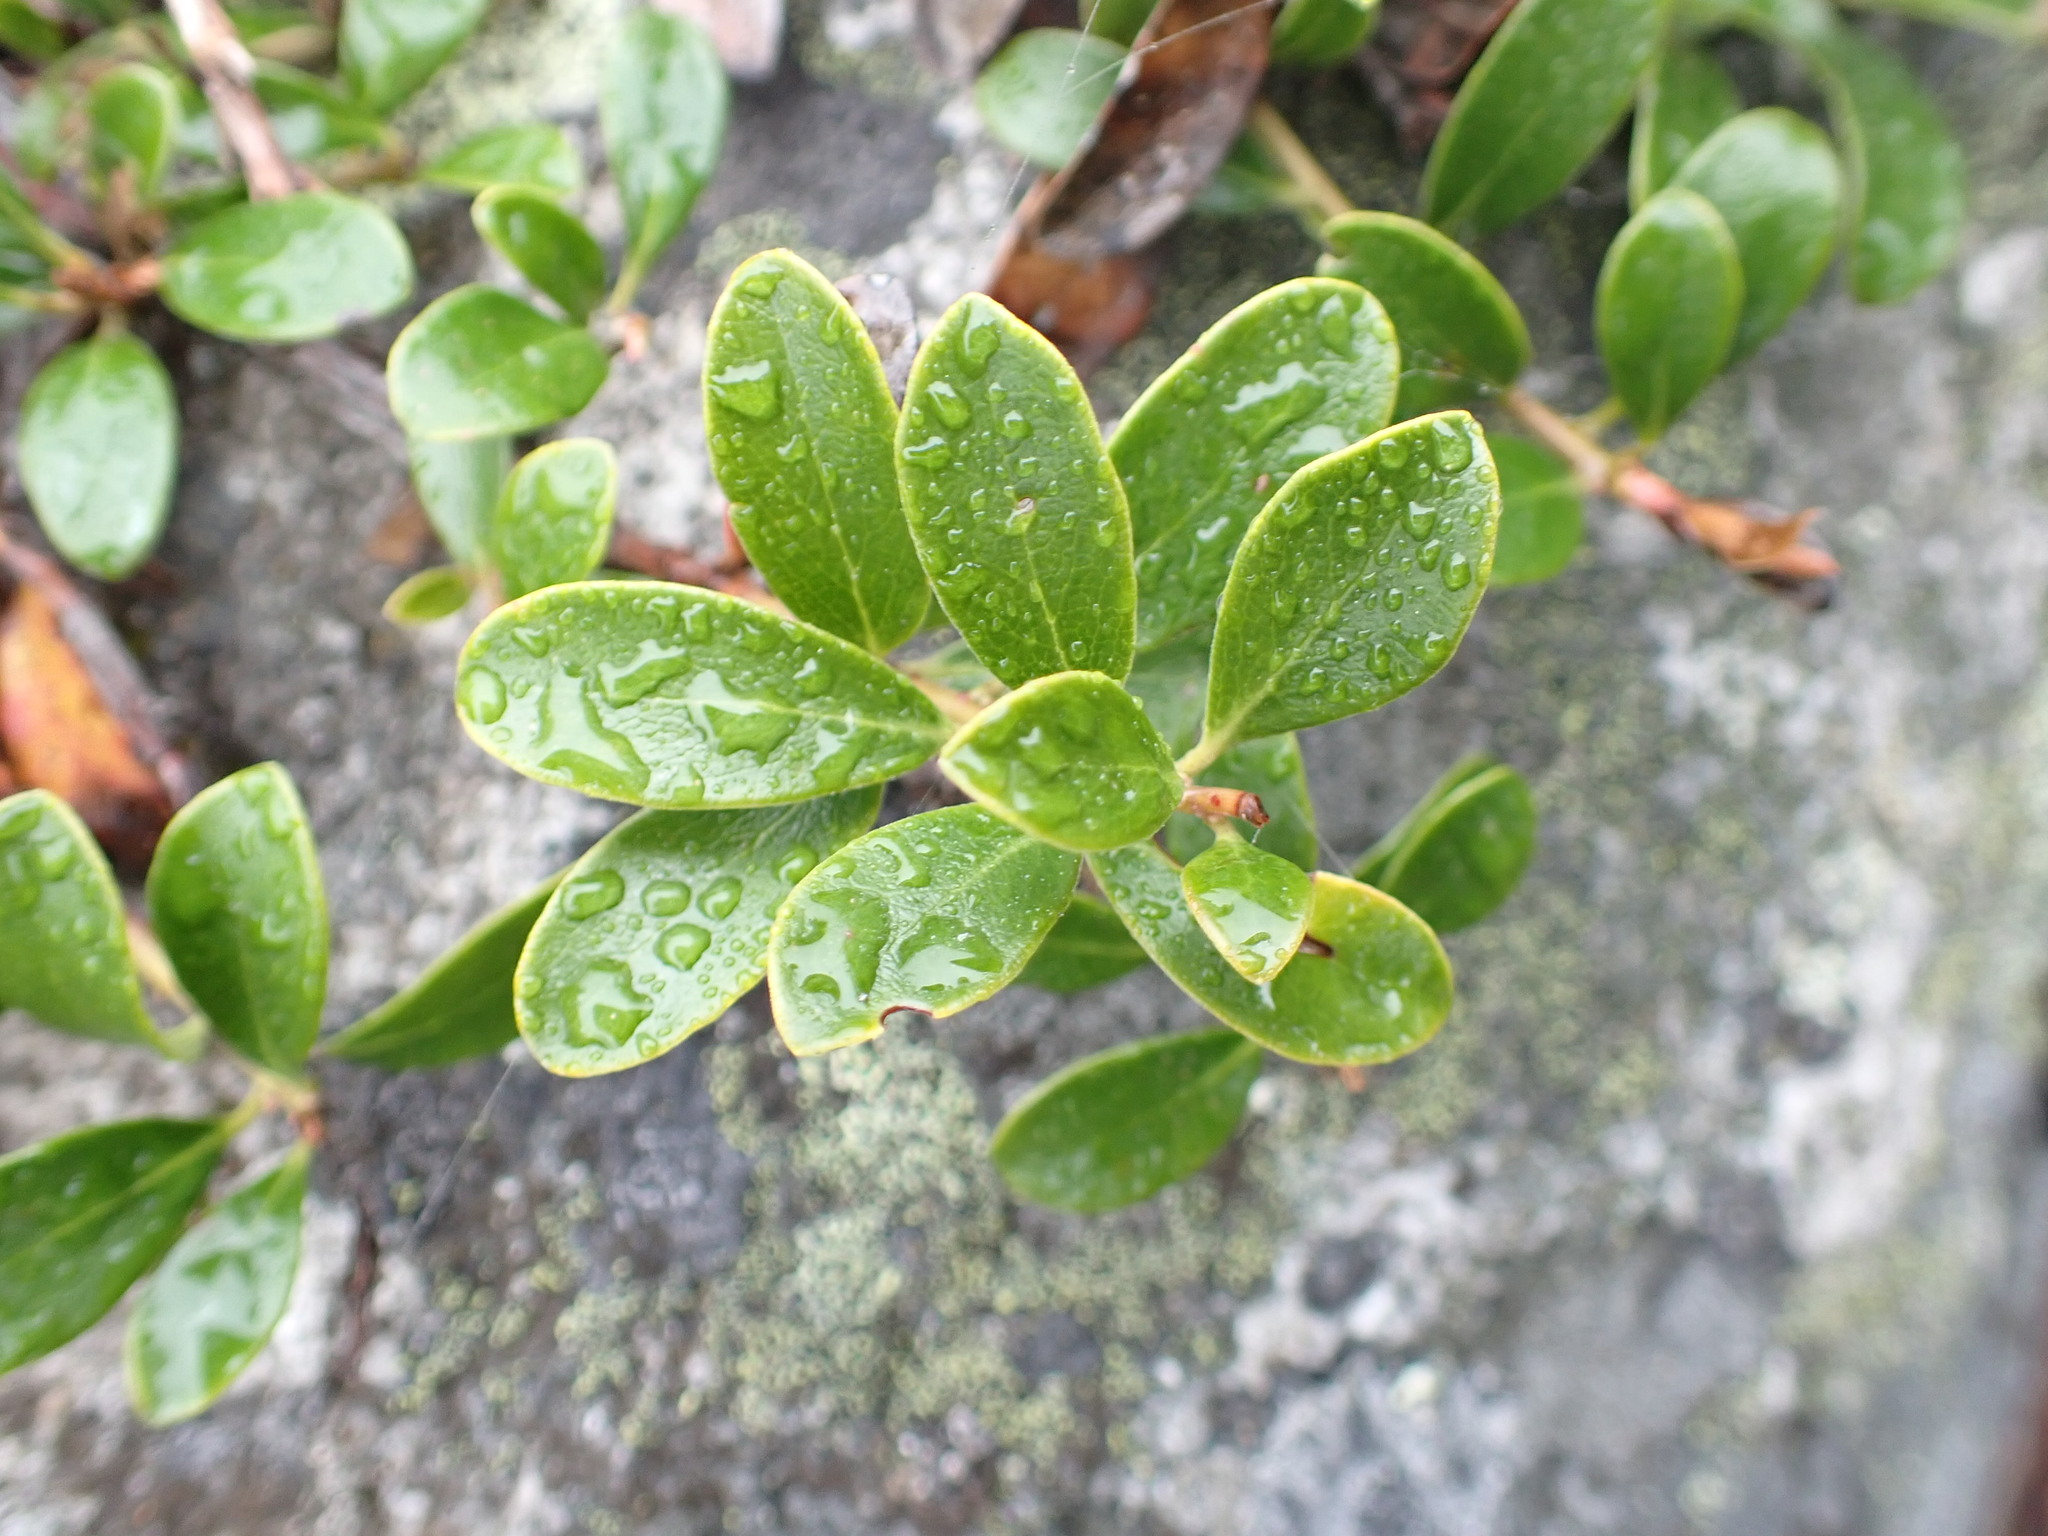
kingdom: Plantae
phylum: Tracheophyta
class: Magnoliopsida
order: Ericales
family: Ericaceae
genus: Arctostaphylos
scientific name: Arctostaphylos uva-ursi
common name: Bearberry
